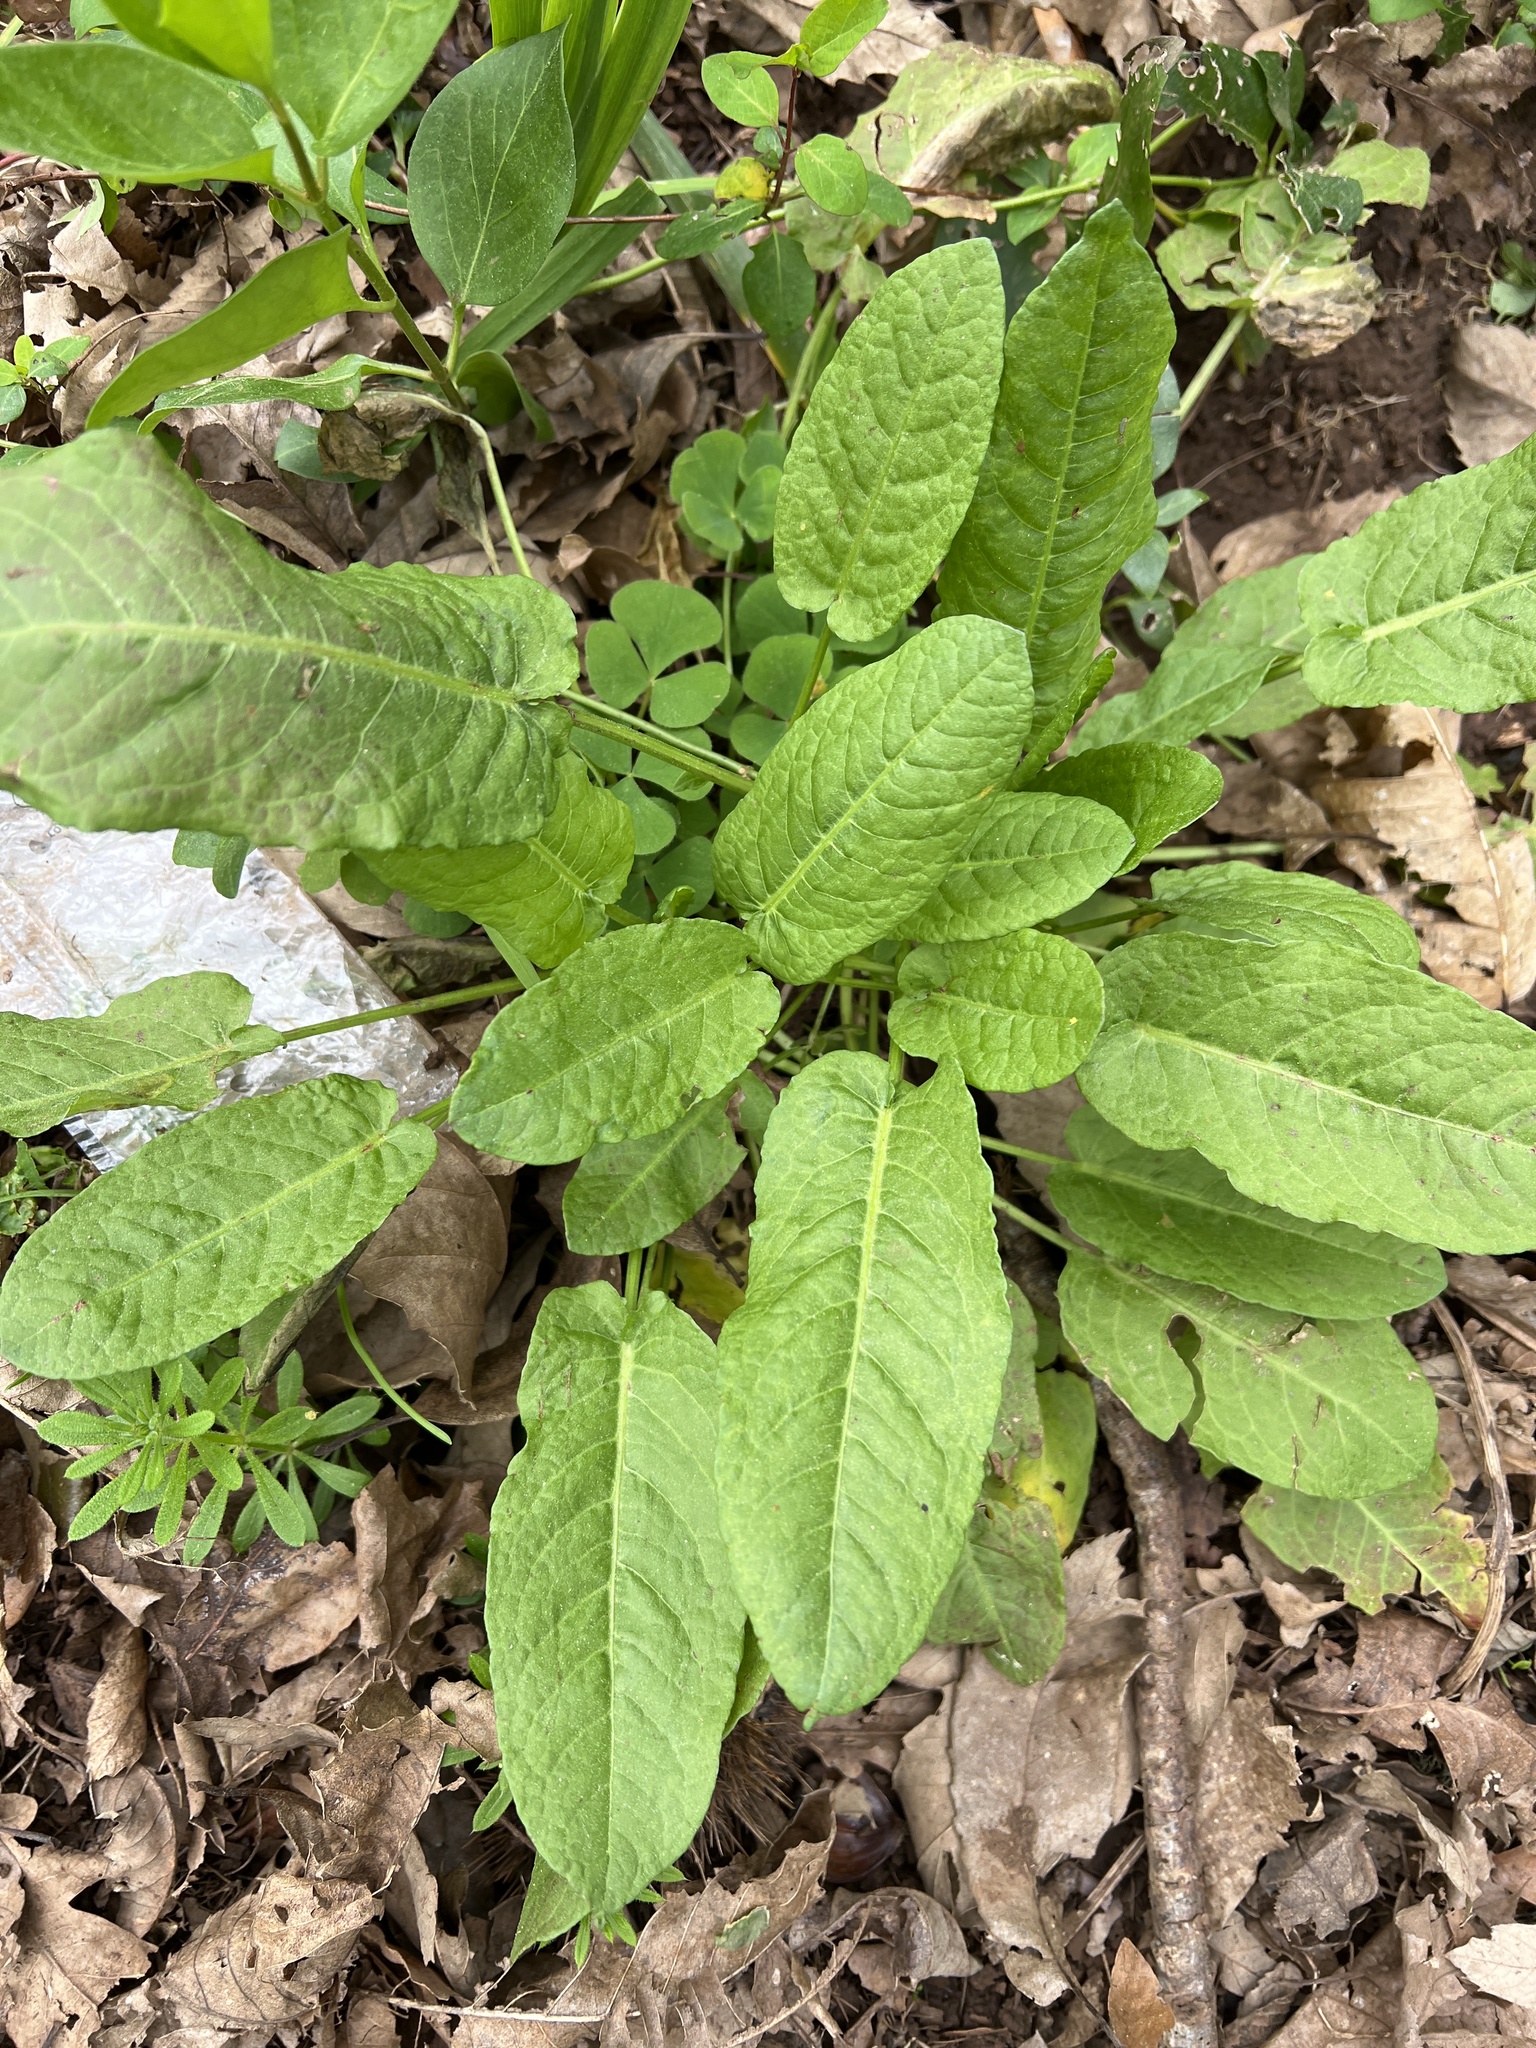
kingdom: Plantae
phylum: Tracheophyta
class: Magnoliopsida
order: Caryophyllales
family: Polygonaceae
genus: Rumex
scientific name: Rumex obtusifolius
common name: Bitter dock
